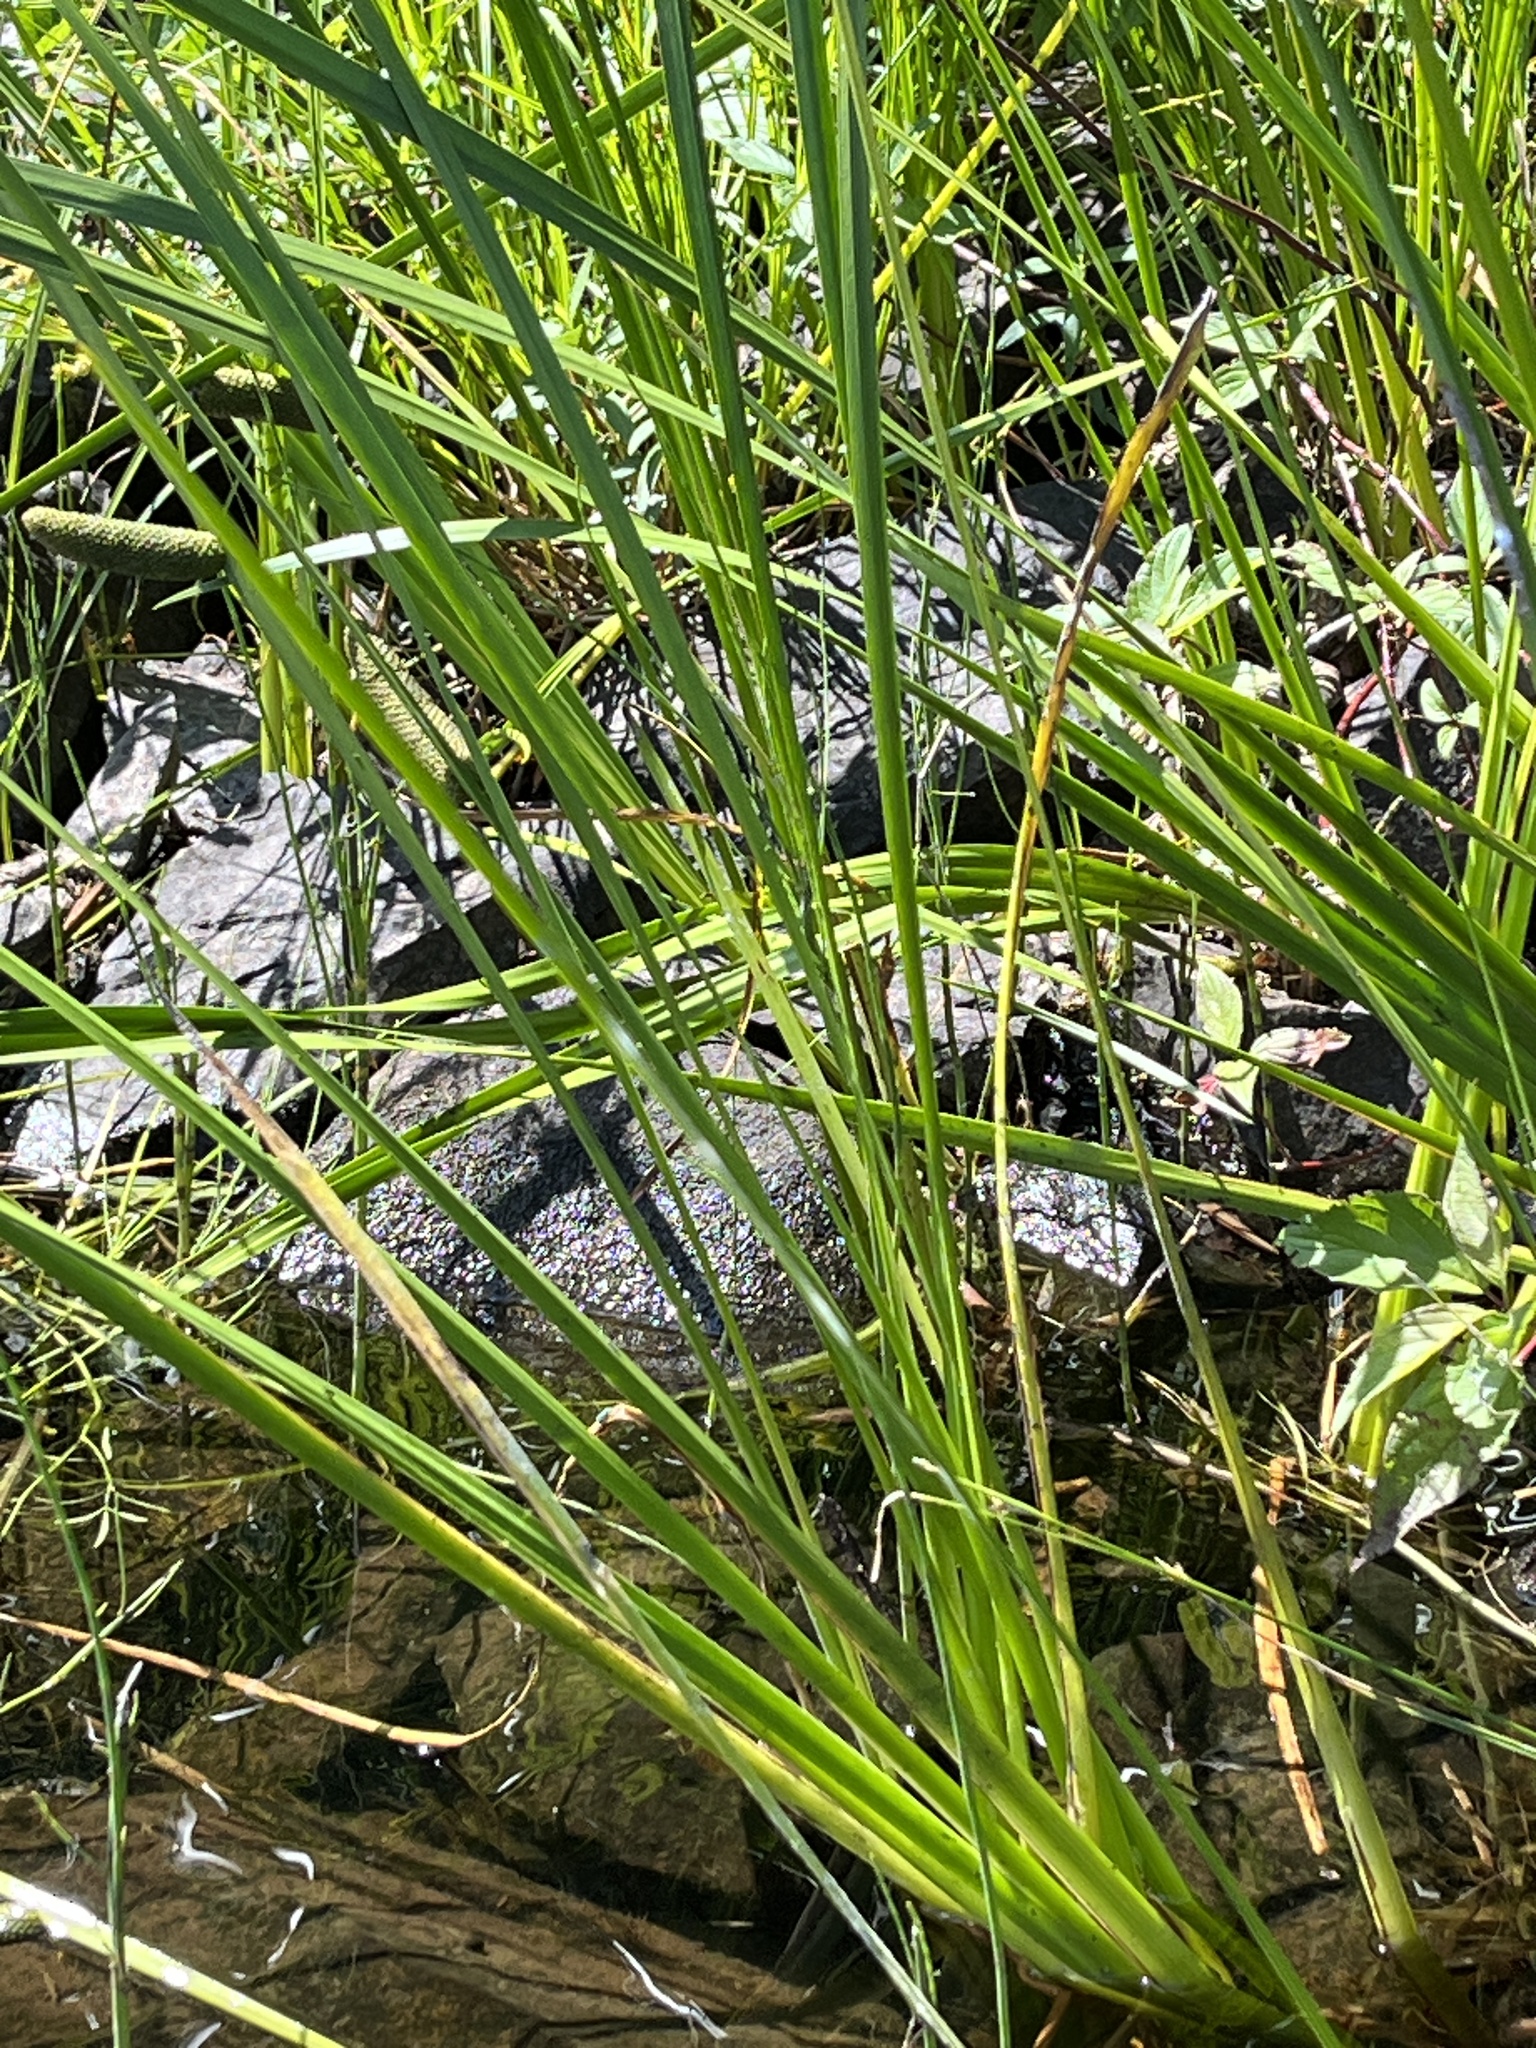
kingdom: Plantae
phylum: Tracheophyta
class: Liliopsida
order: Acorales
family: Acoraceae
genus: Acorus
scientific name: Acorus calamus
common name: Sweet-flag
